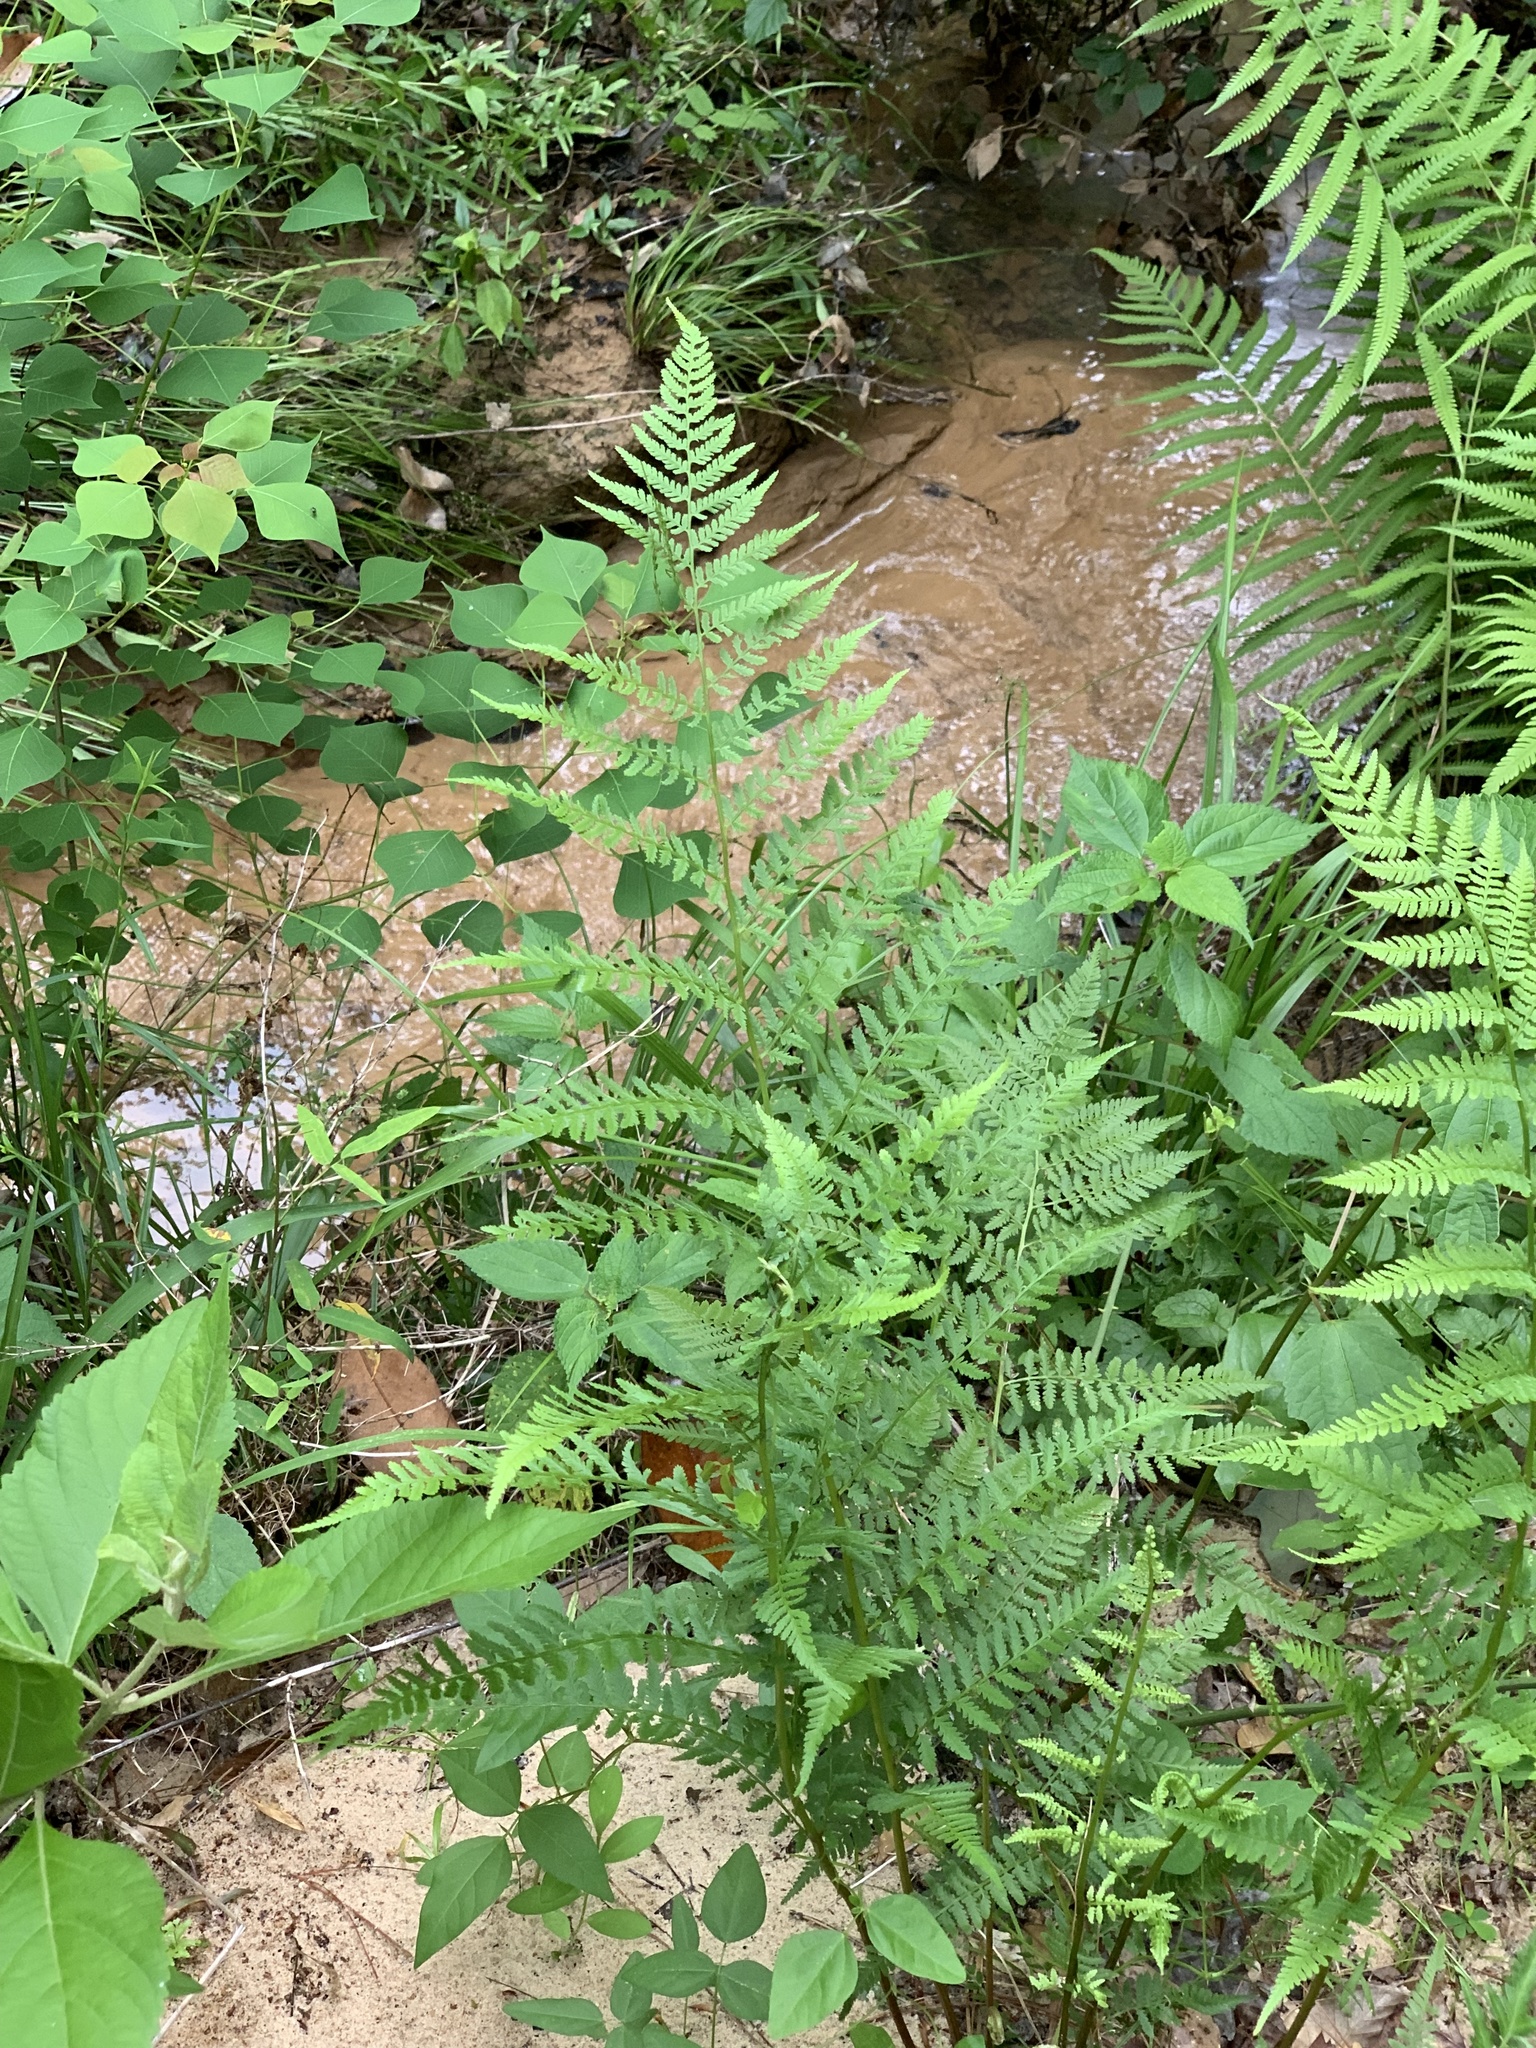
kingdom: Plantae
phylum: Tracheophyta
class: Polypodiopsida
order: Polypodiales
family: Athyriaceae
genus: Athyrium
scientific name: Athyrium asplenioides
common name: Southern lady fern
